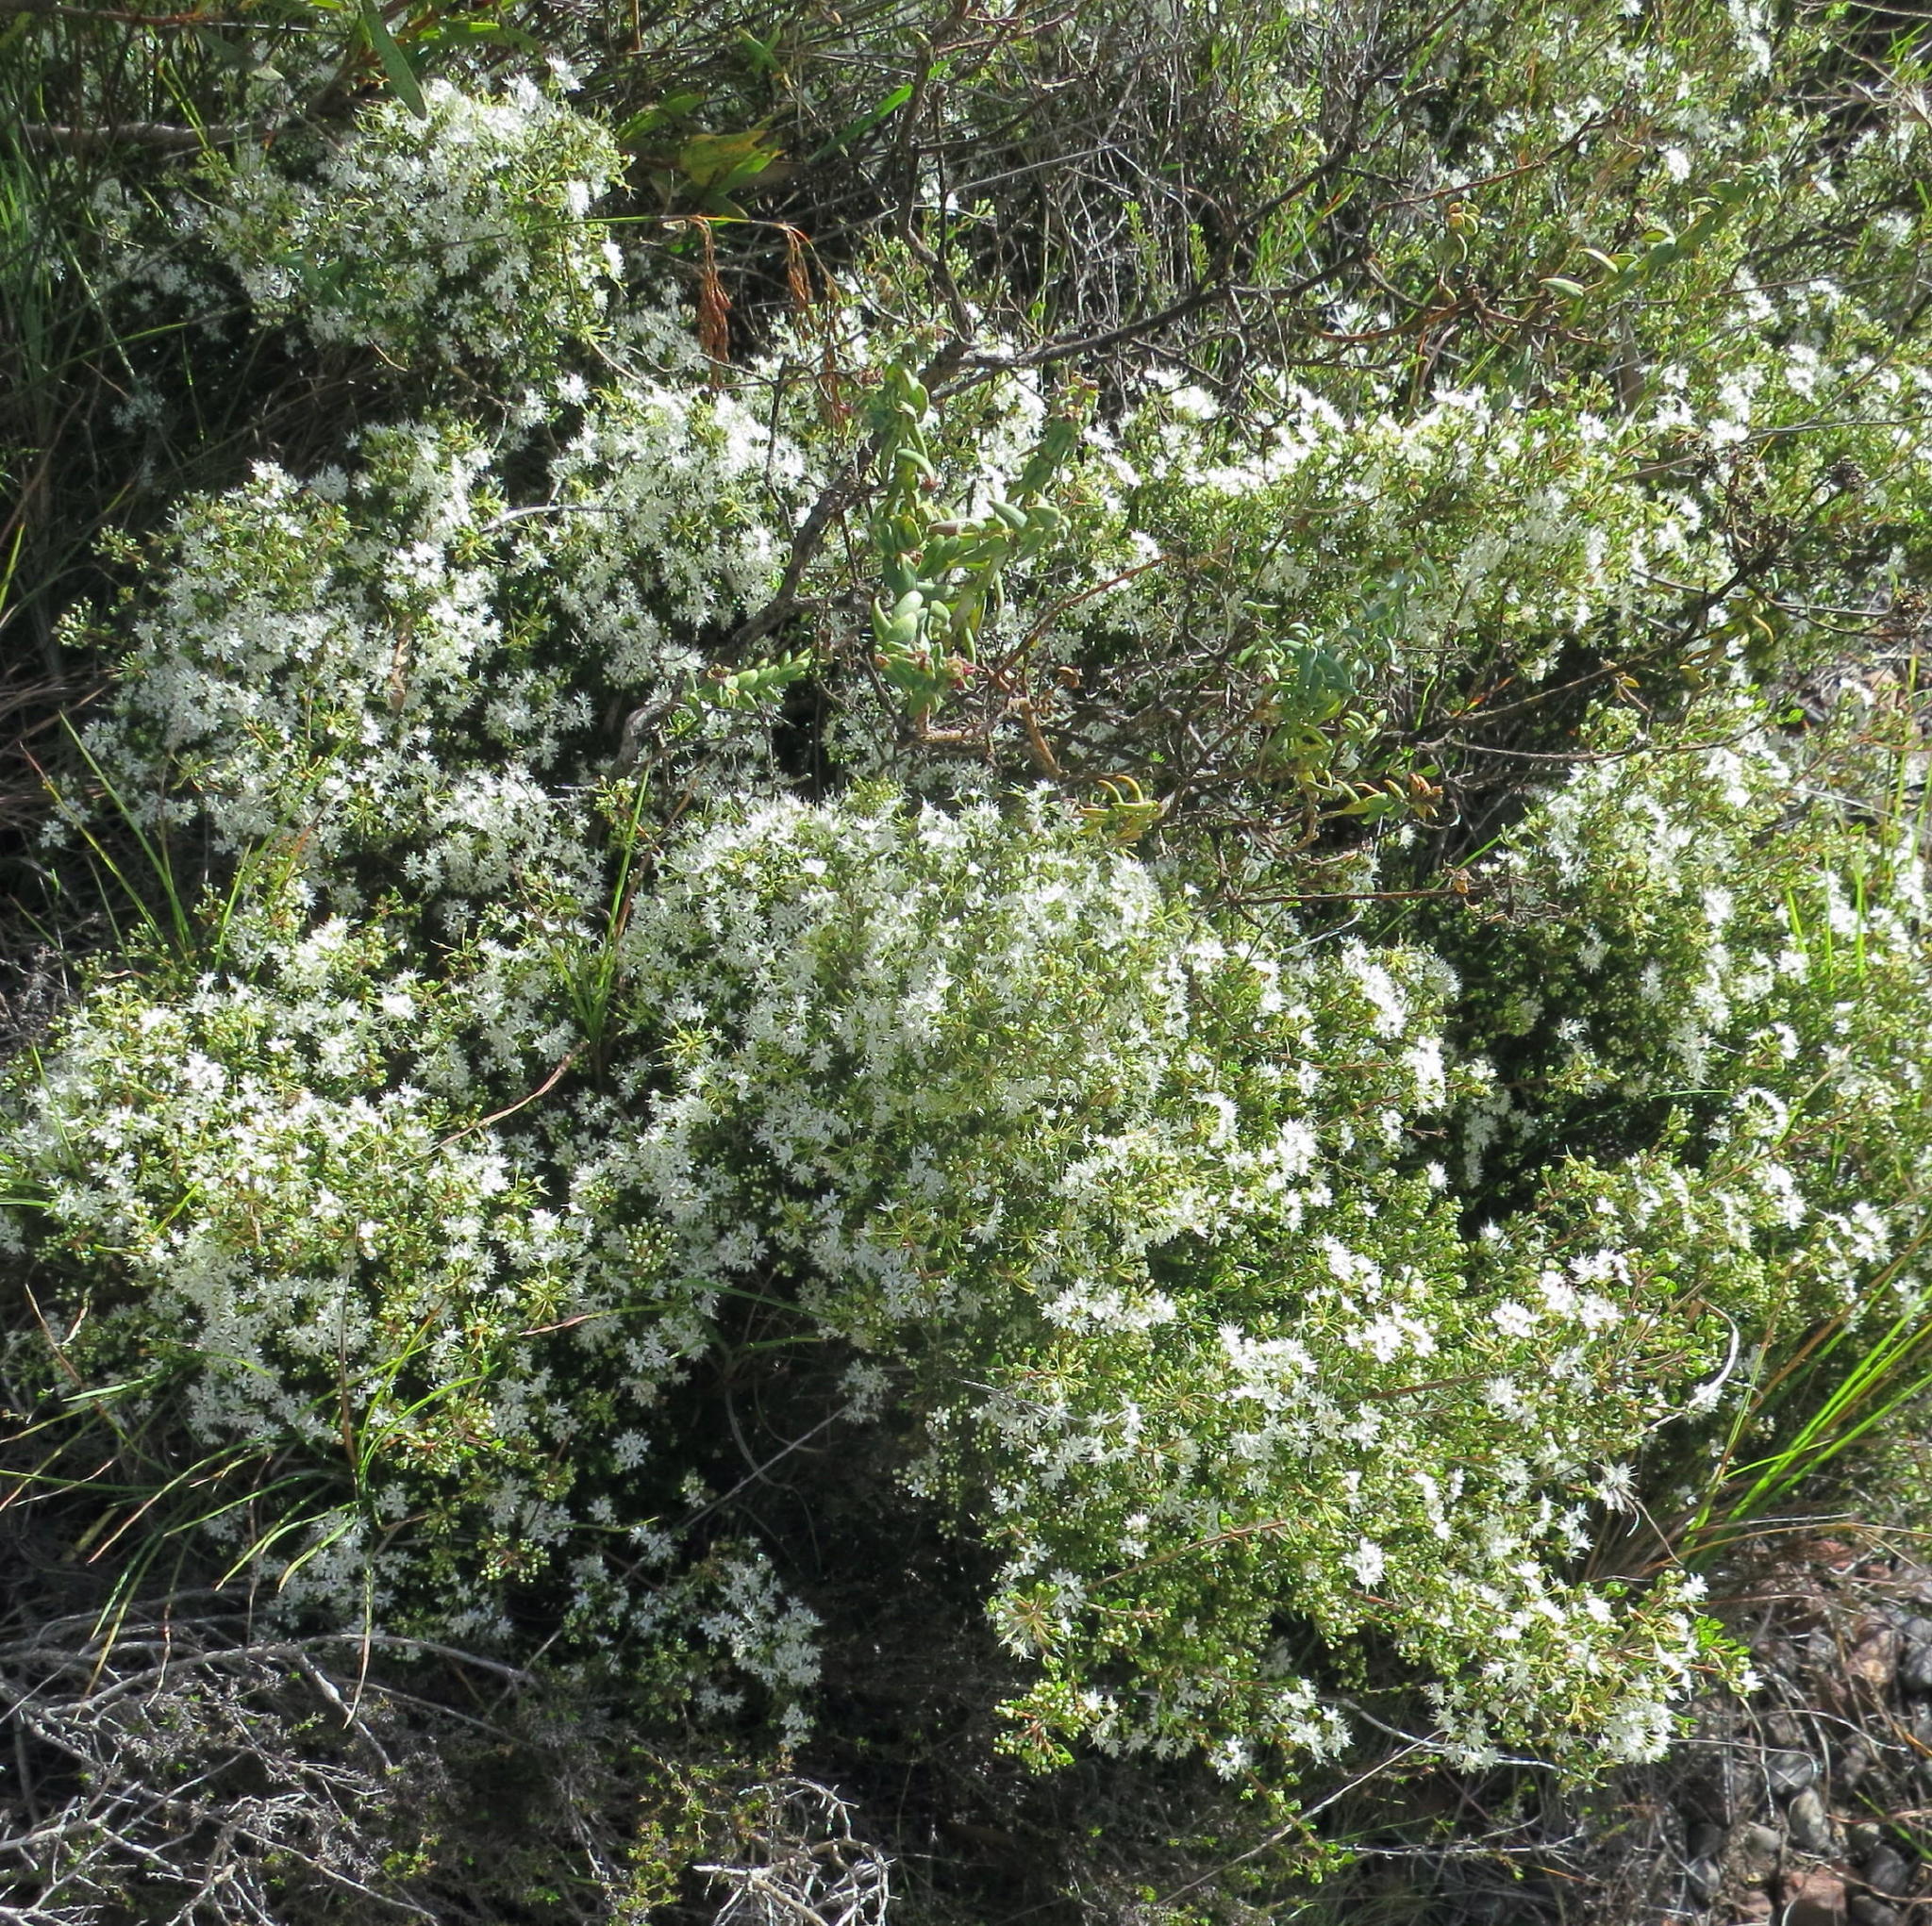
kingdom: Plantae
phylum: Tracheophyta
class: Magnoliopsida
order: Sapindales
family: Rutaceae
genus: Agathosma
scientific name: Agathosma mundtii
